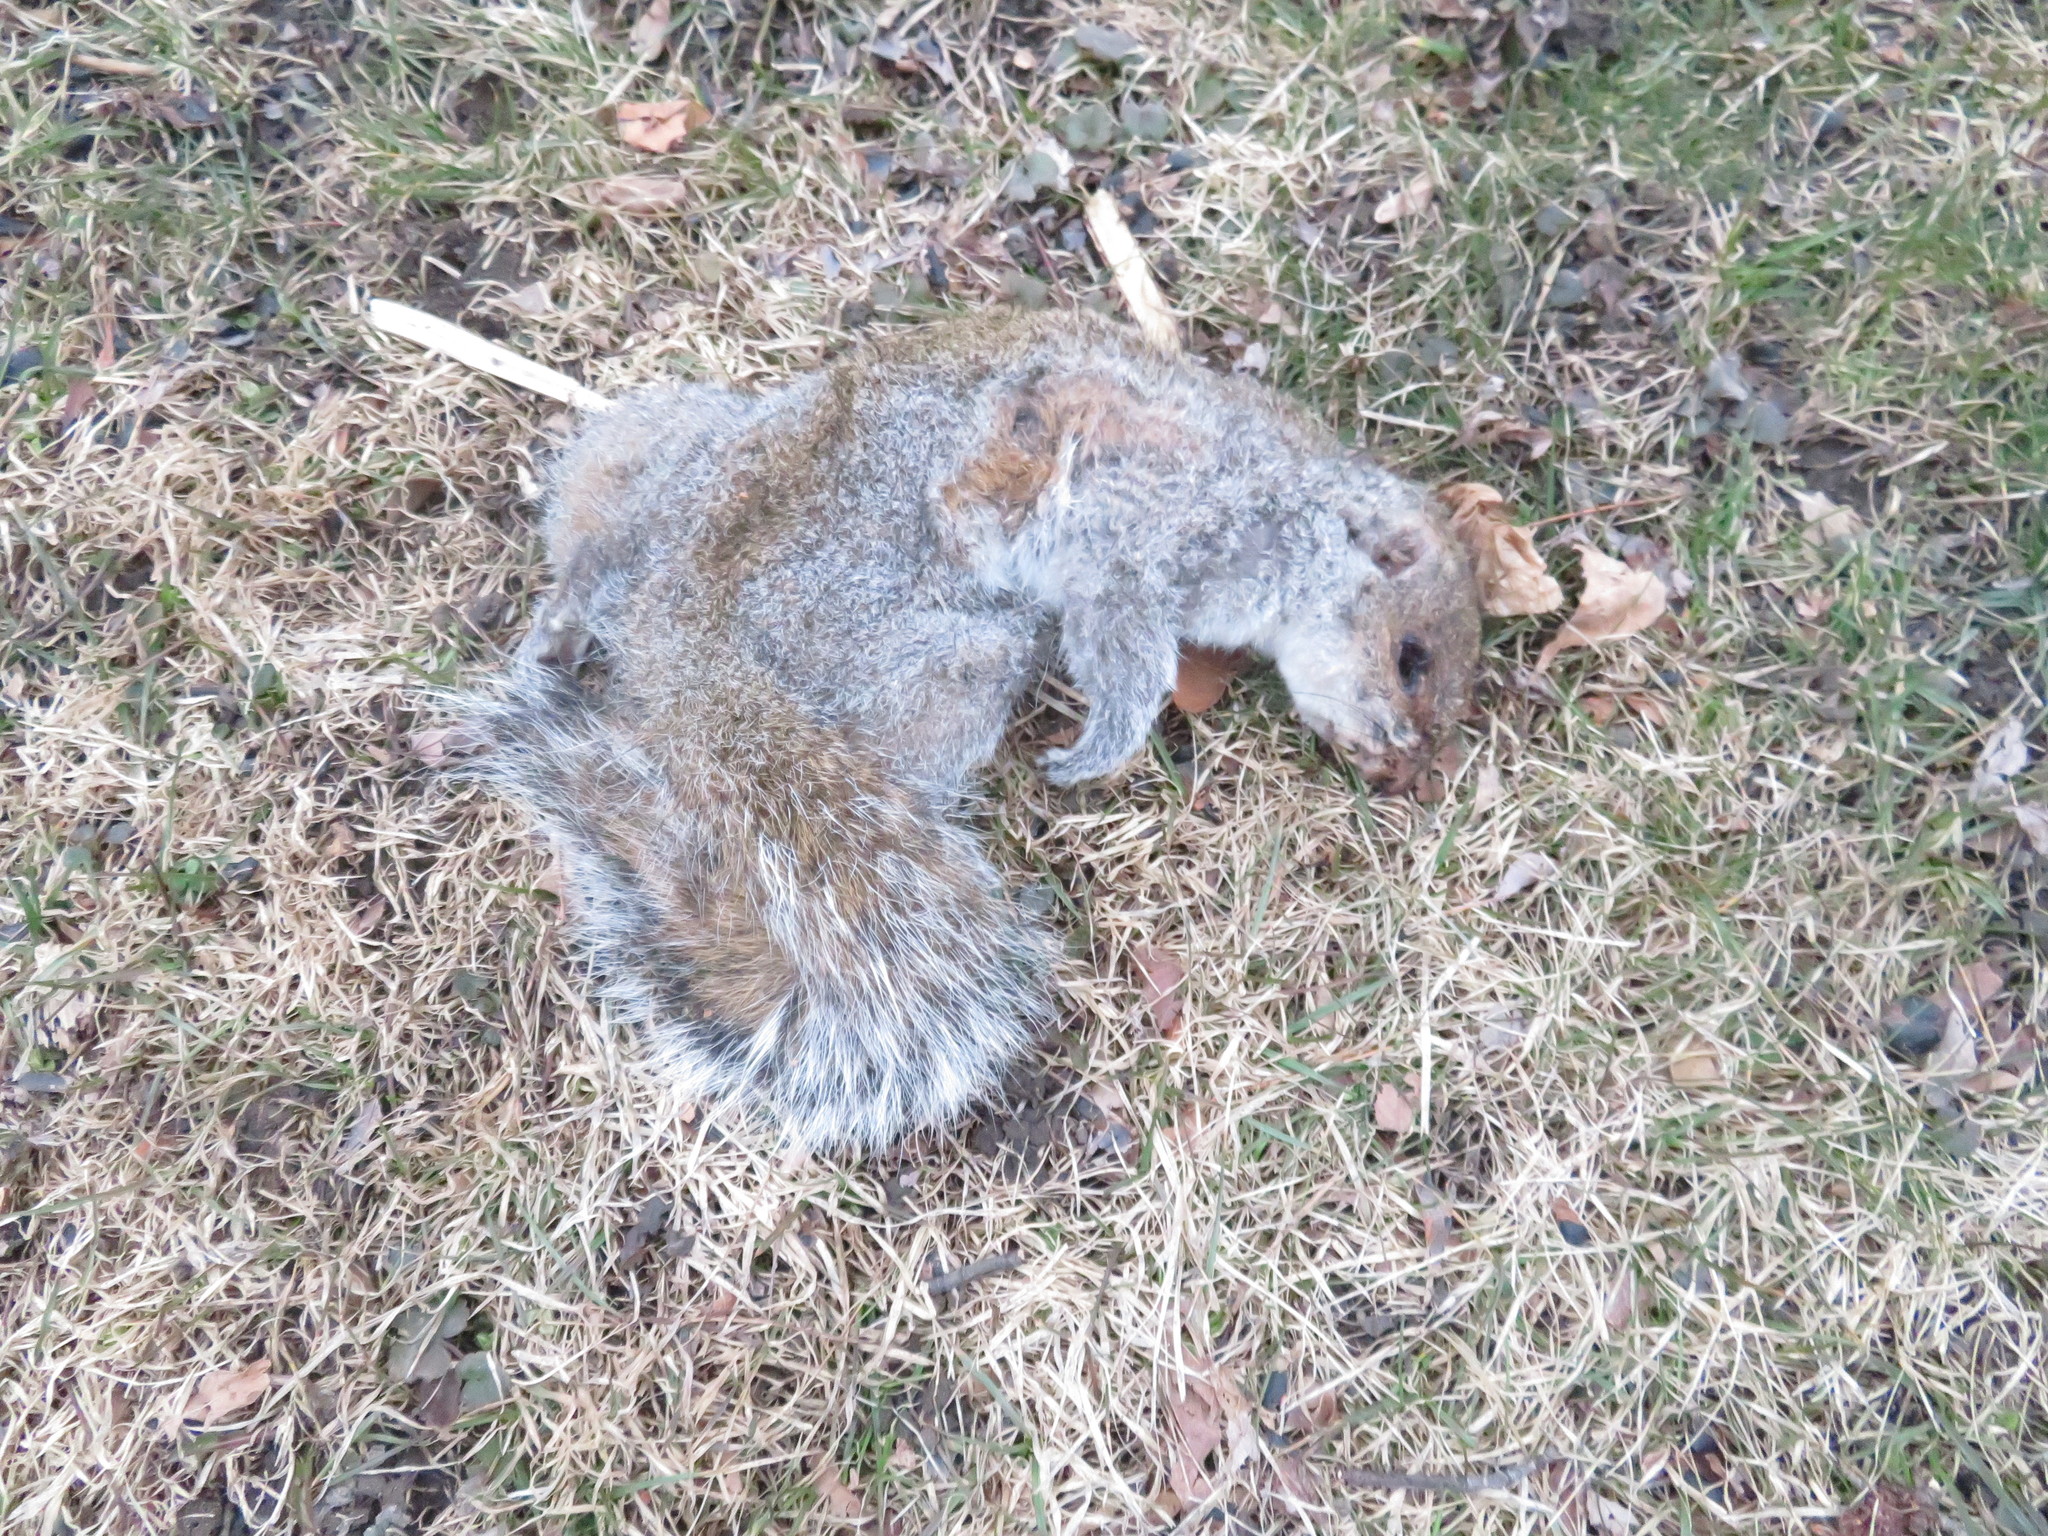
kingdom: Animalia
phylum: Chordata
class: Mammalia
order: Rodentia
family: Sciuridae
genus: Sciurus
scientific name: Sciurus carolinensis
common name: Eastern gray squirrel
